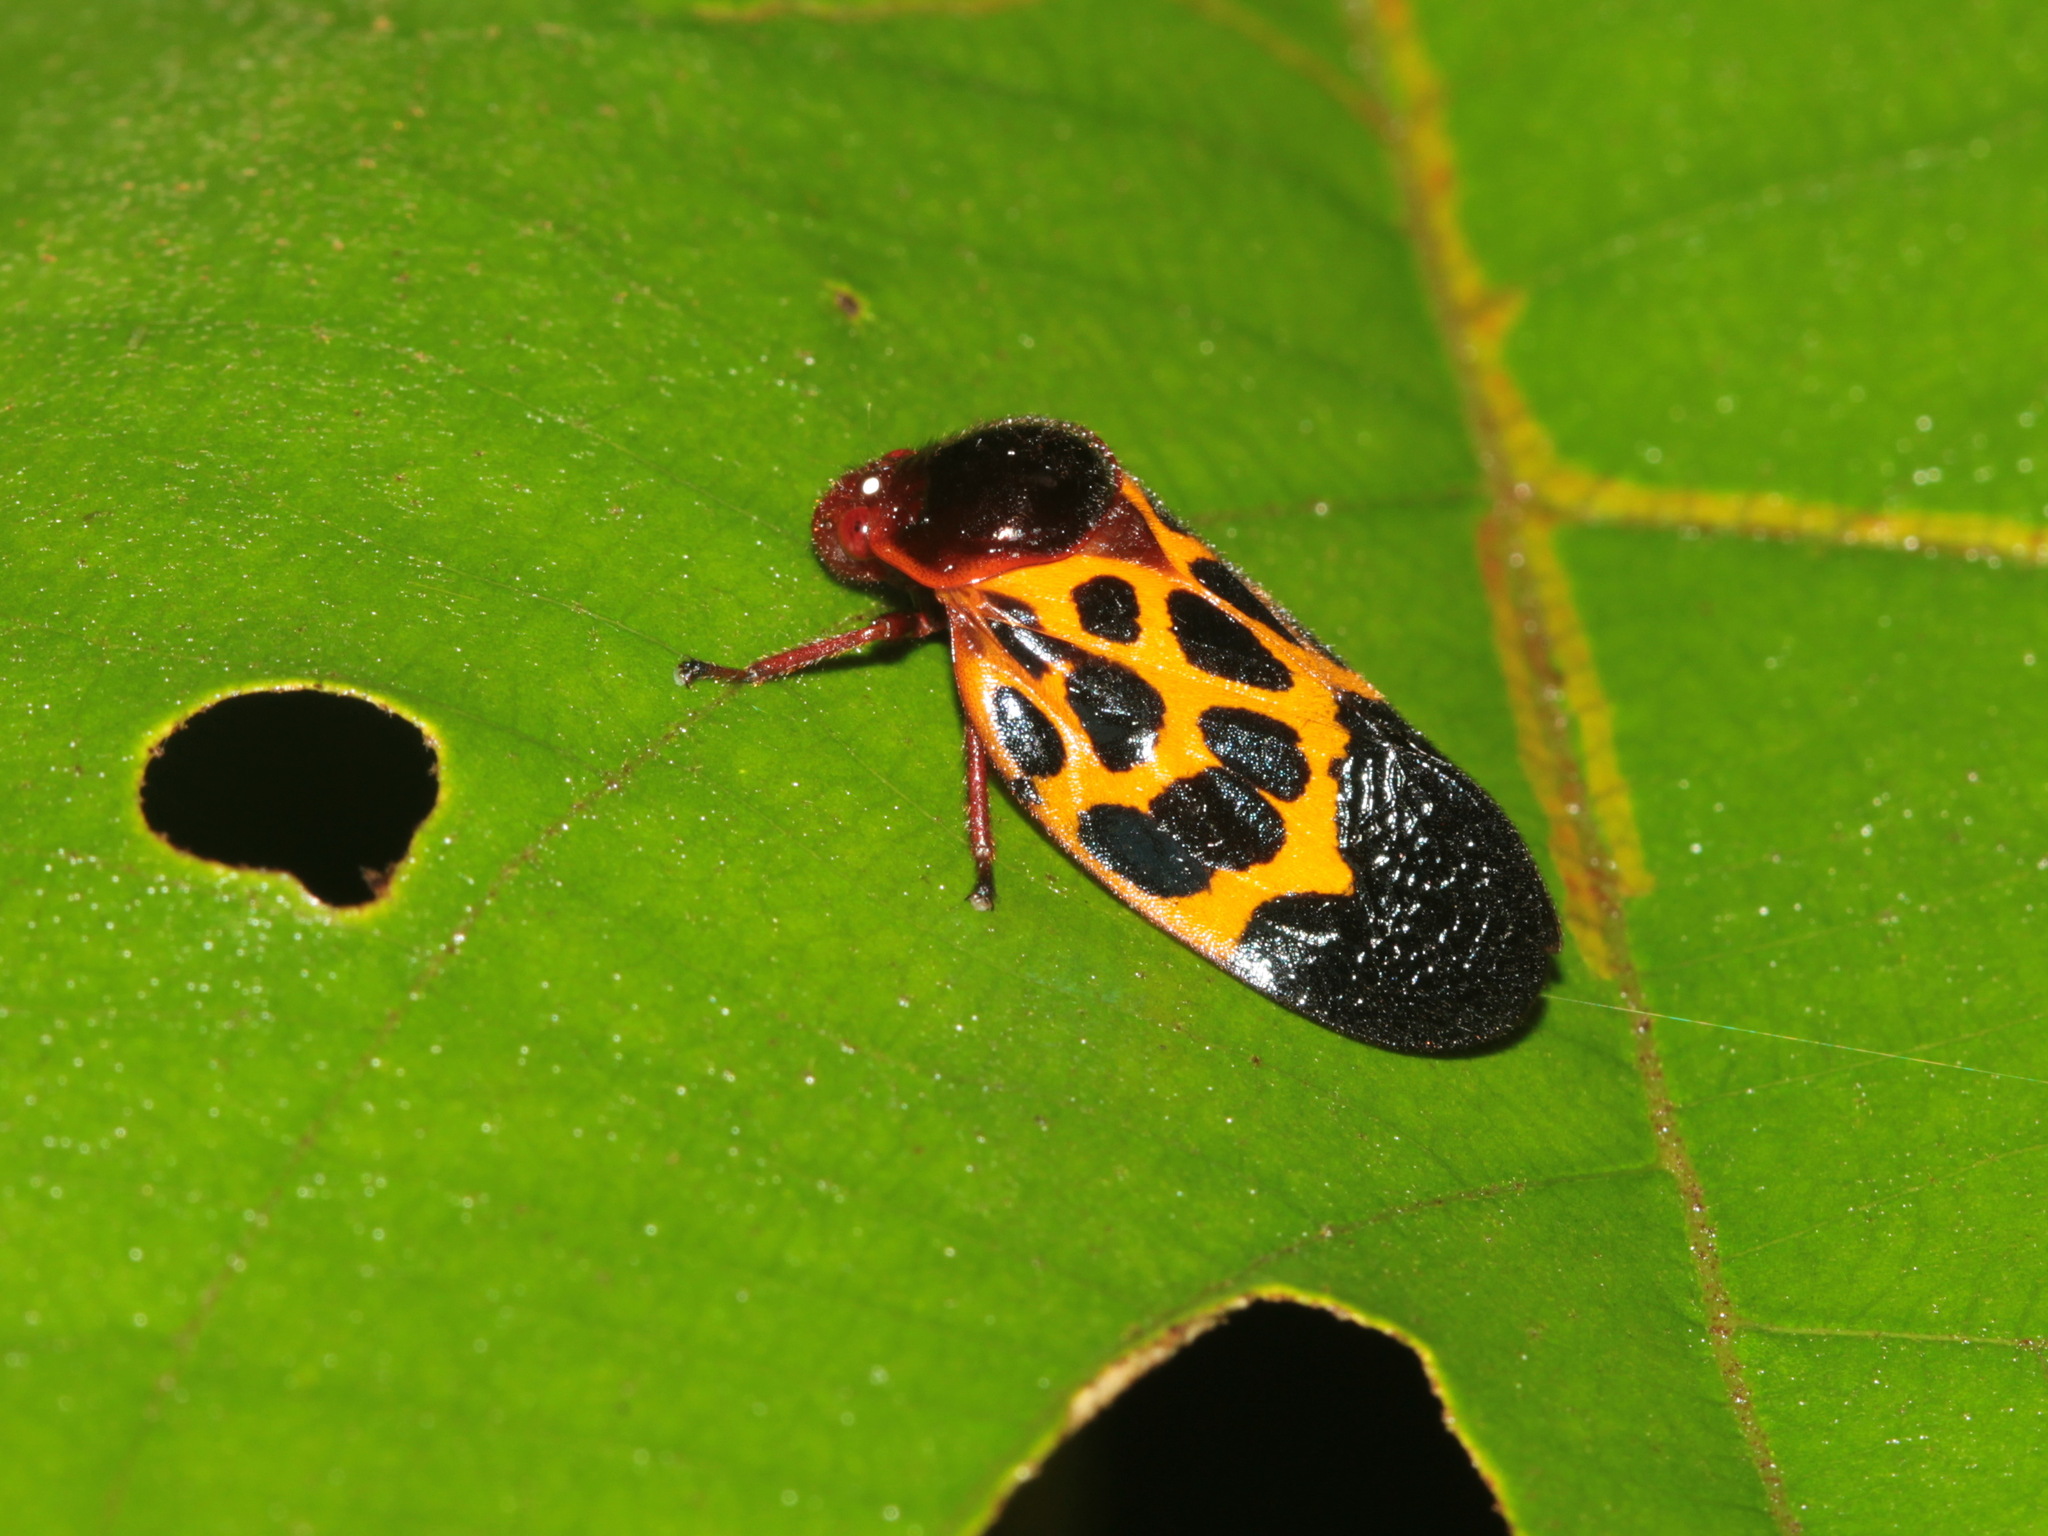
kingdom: Animalia
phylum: Arthropoda
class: Insecta
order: Hemiptera
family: Cercopidae
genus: Leptataspis
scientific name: Leptataspis rotundata
